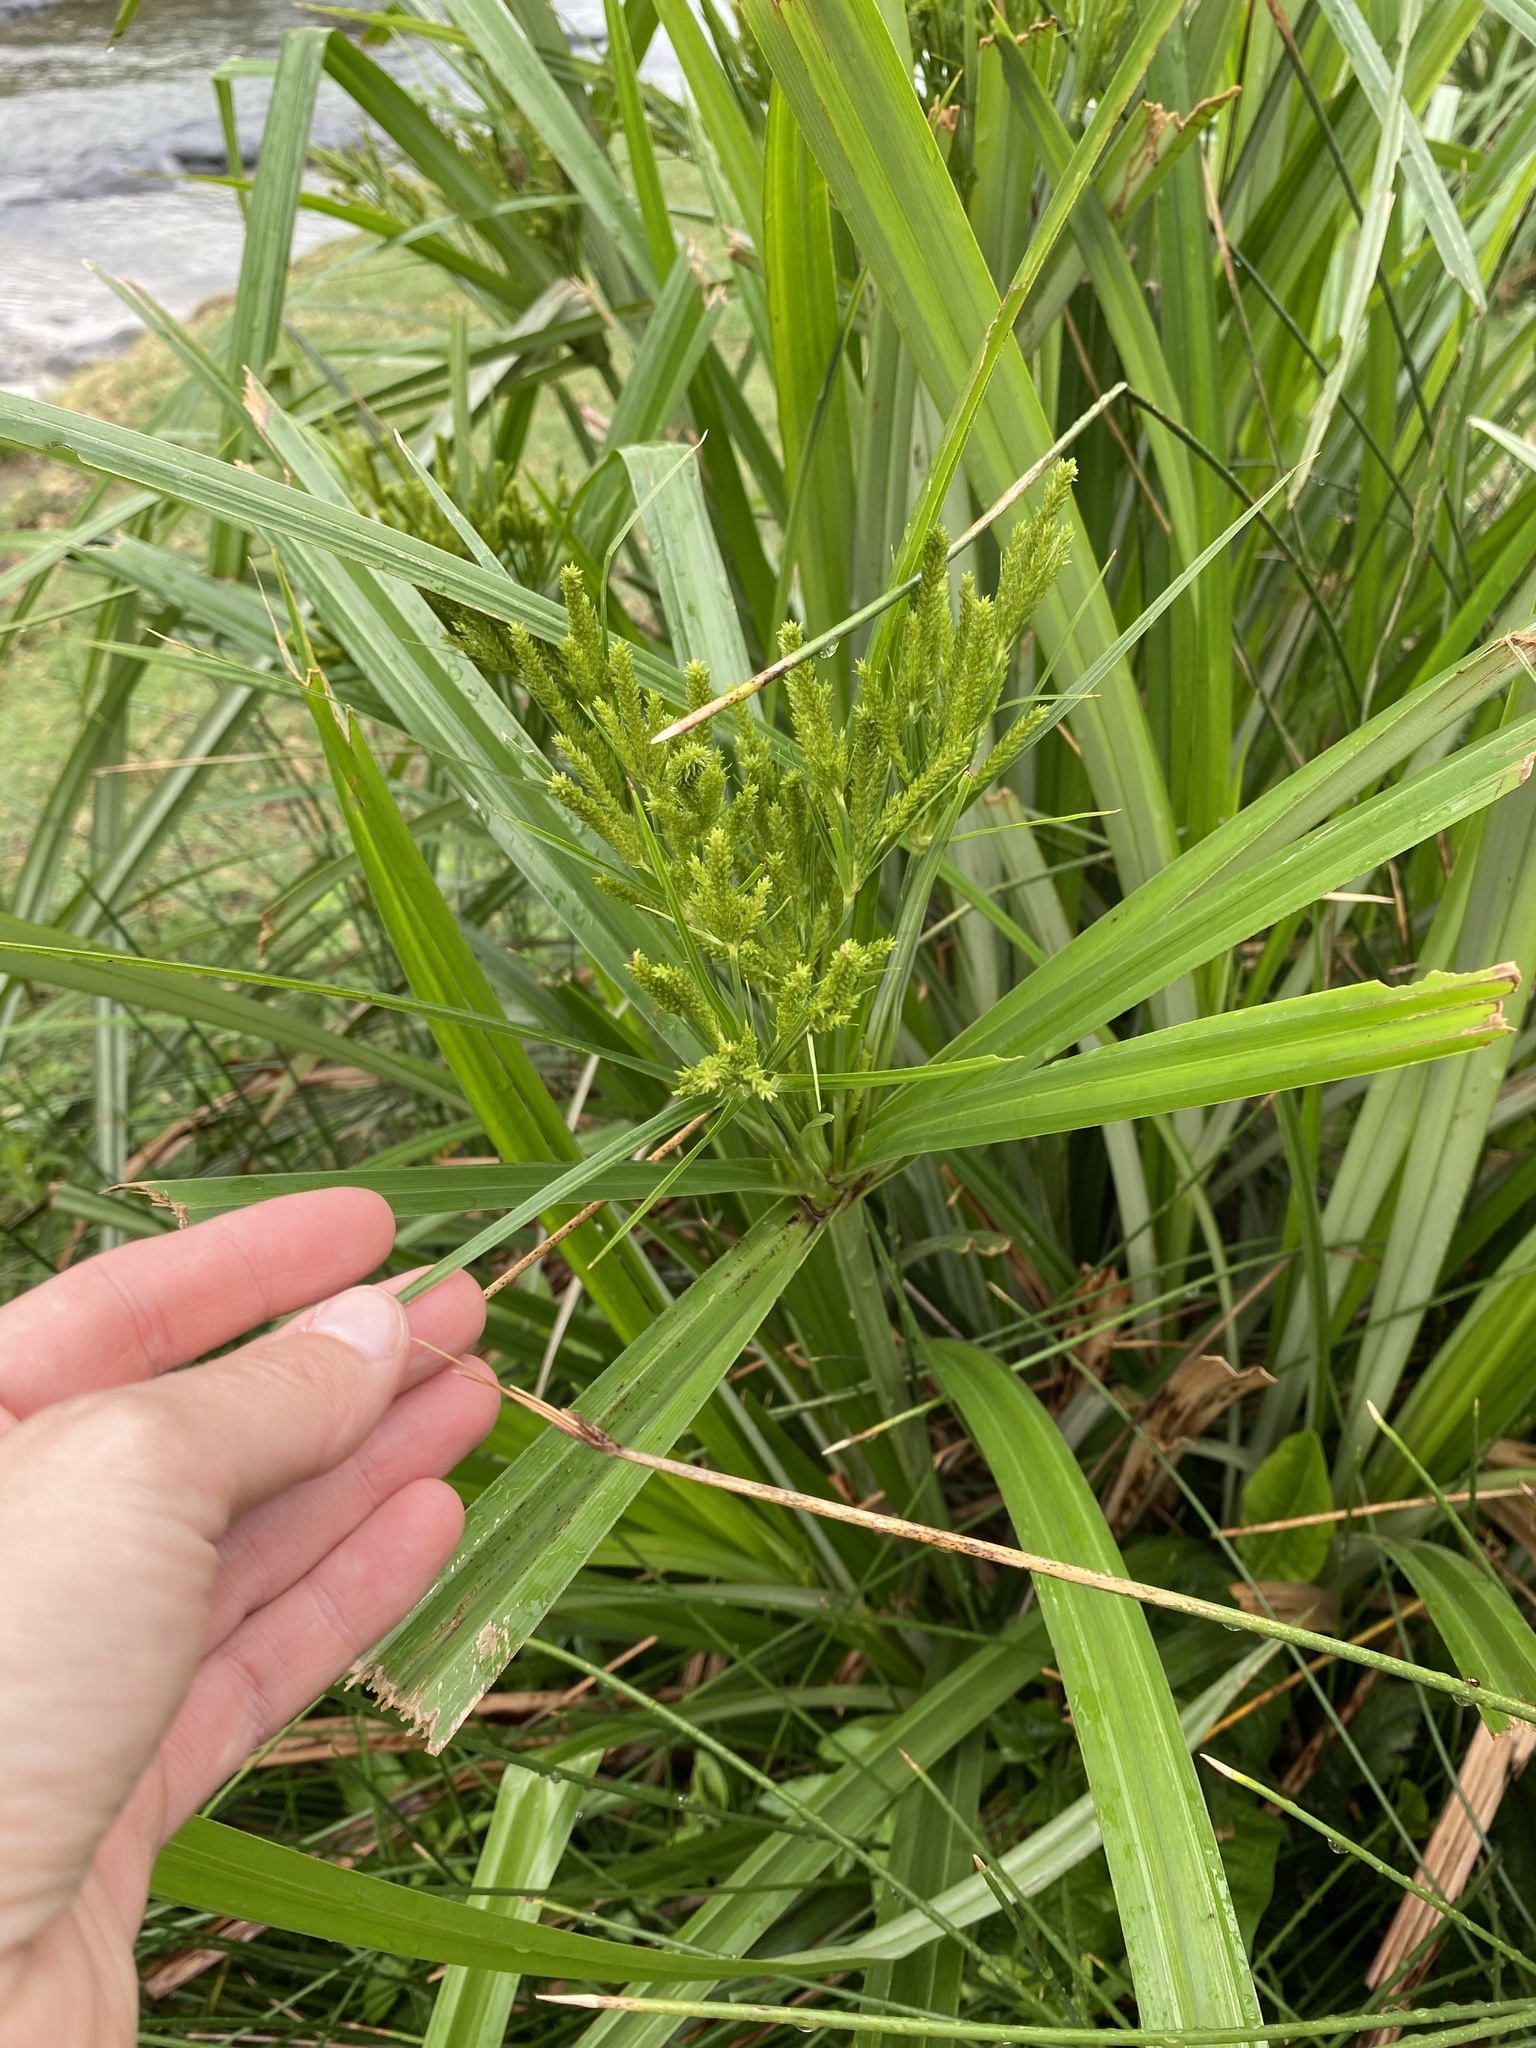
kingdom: Plantae
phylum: Tracheophyta
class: Liliopsida
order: Poales
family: Cyperaceae
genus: Cyperus
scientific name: Cyperus dives
